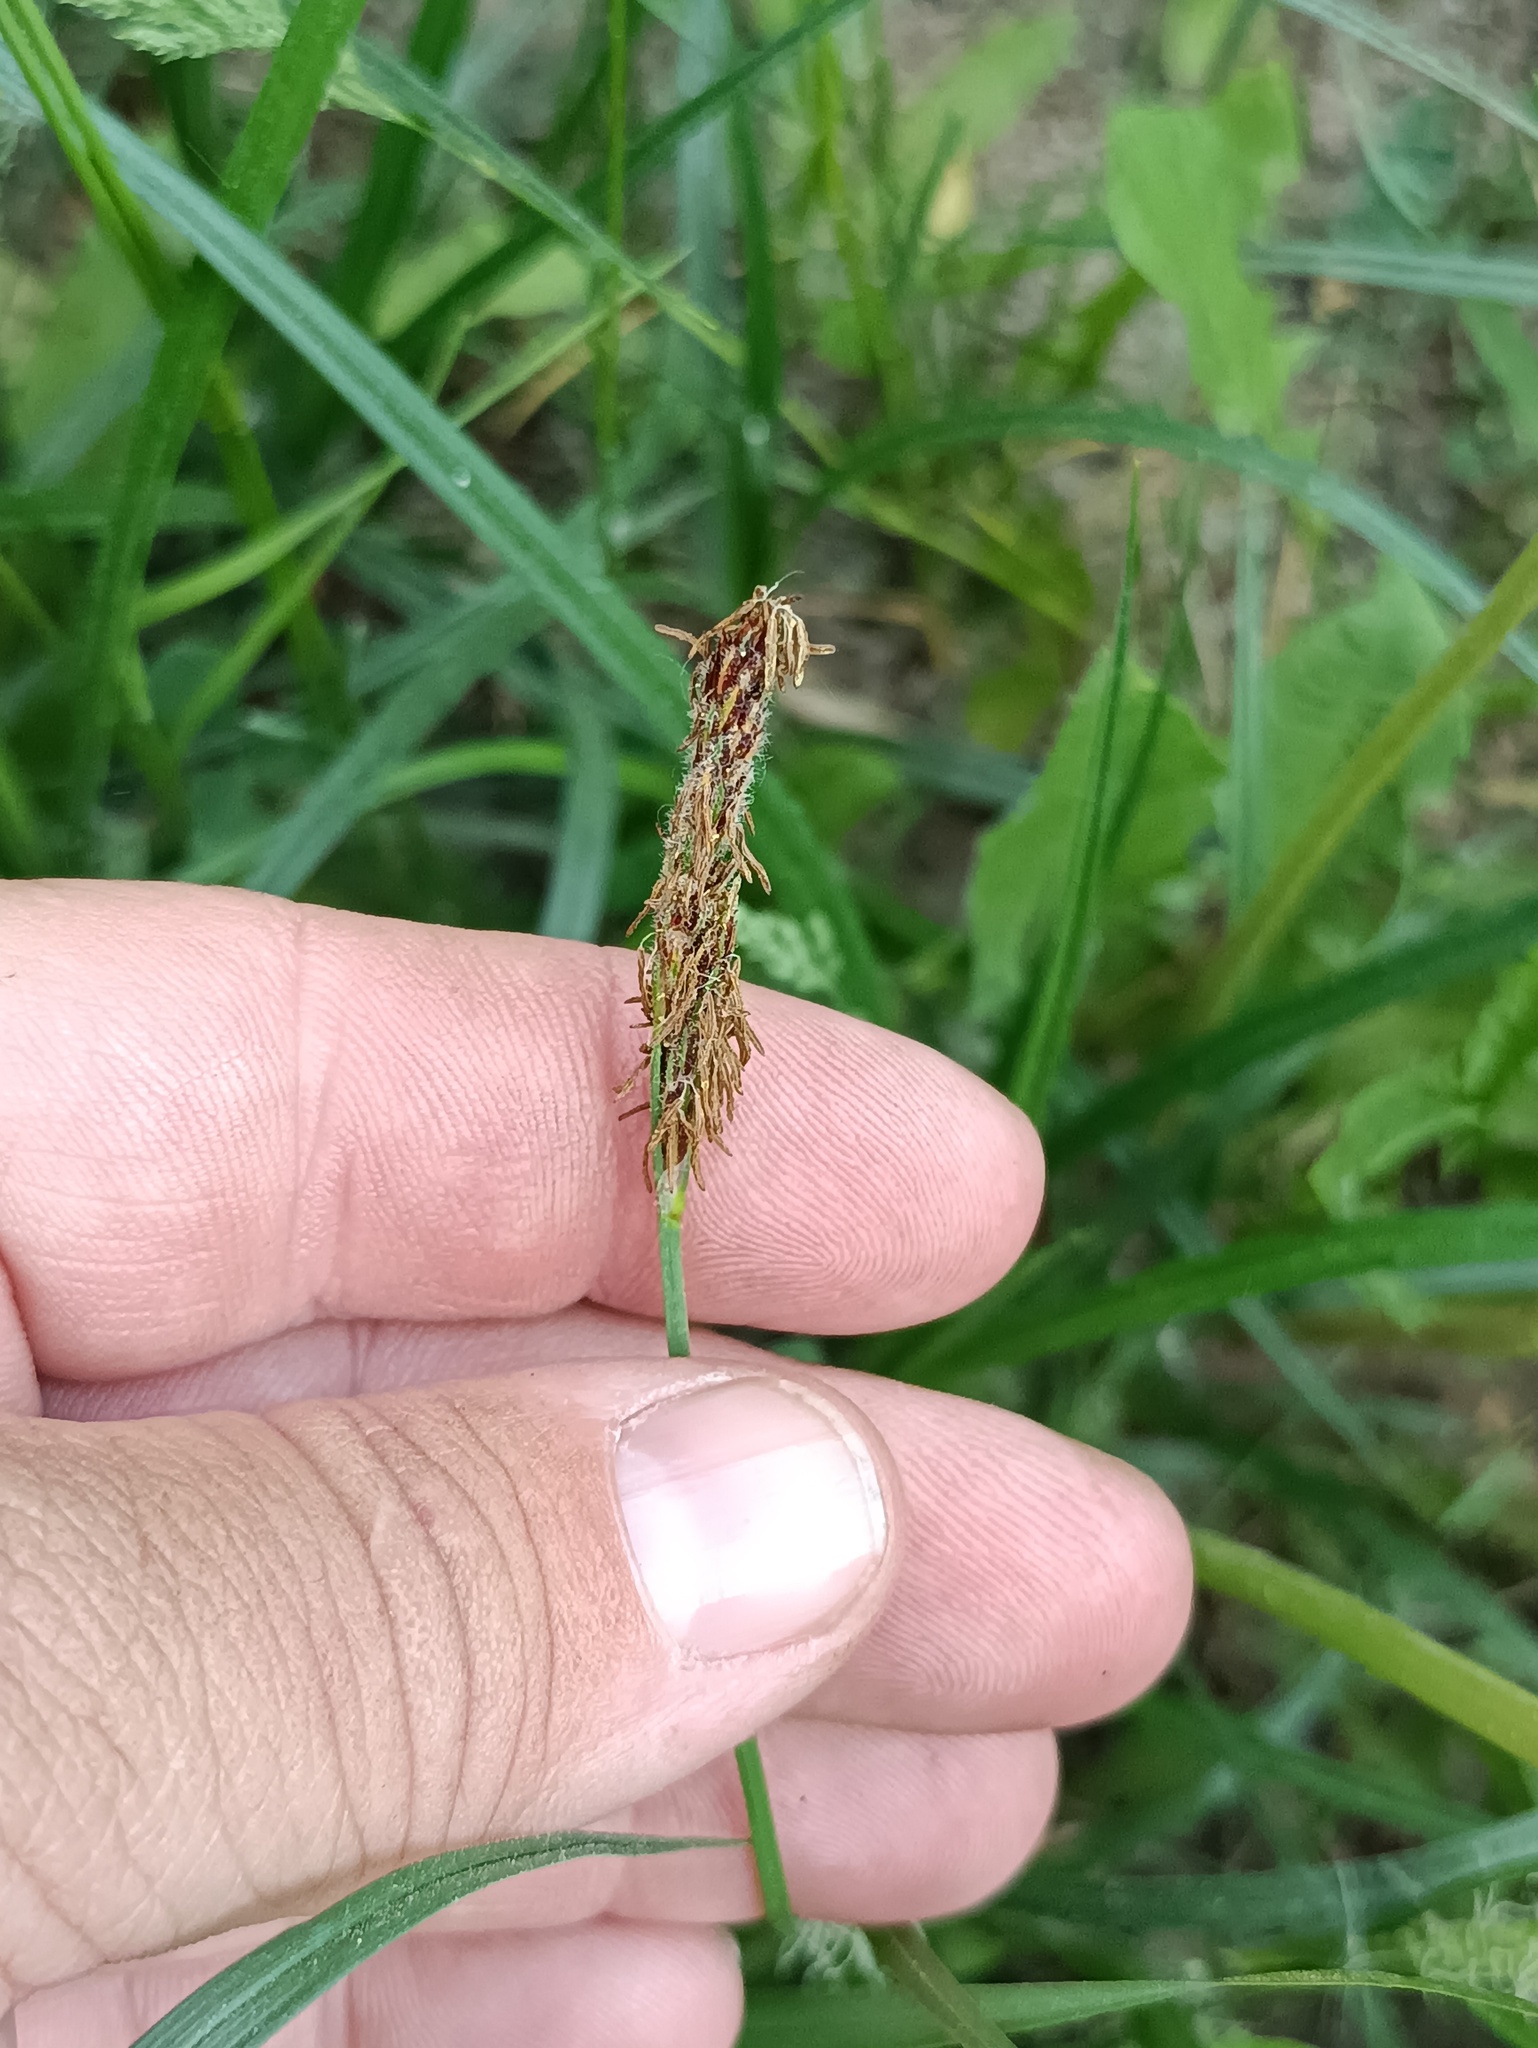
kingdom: Plantae
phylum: Tracheophyta
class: Liliopsida
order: Poales
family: Cyperaceae
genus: Carex
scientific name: Carex hirta
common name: Hairy sedge
